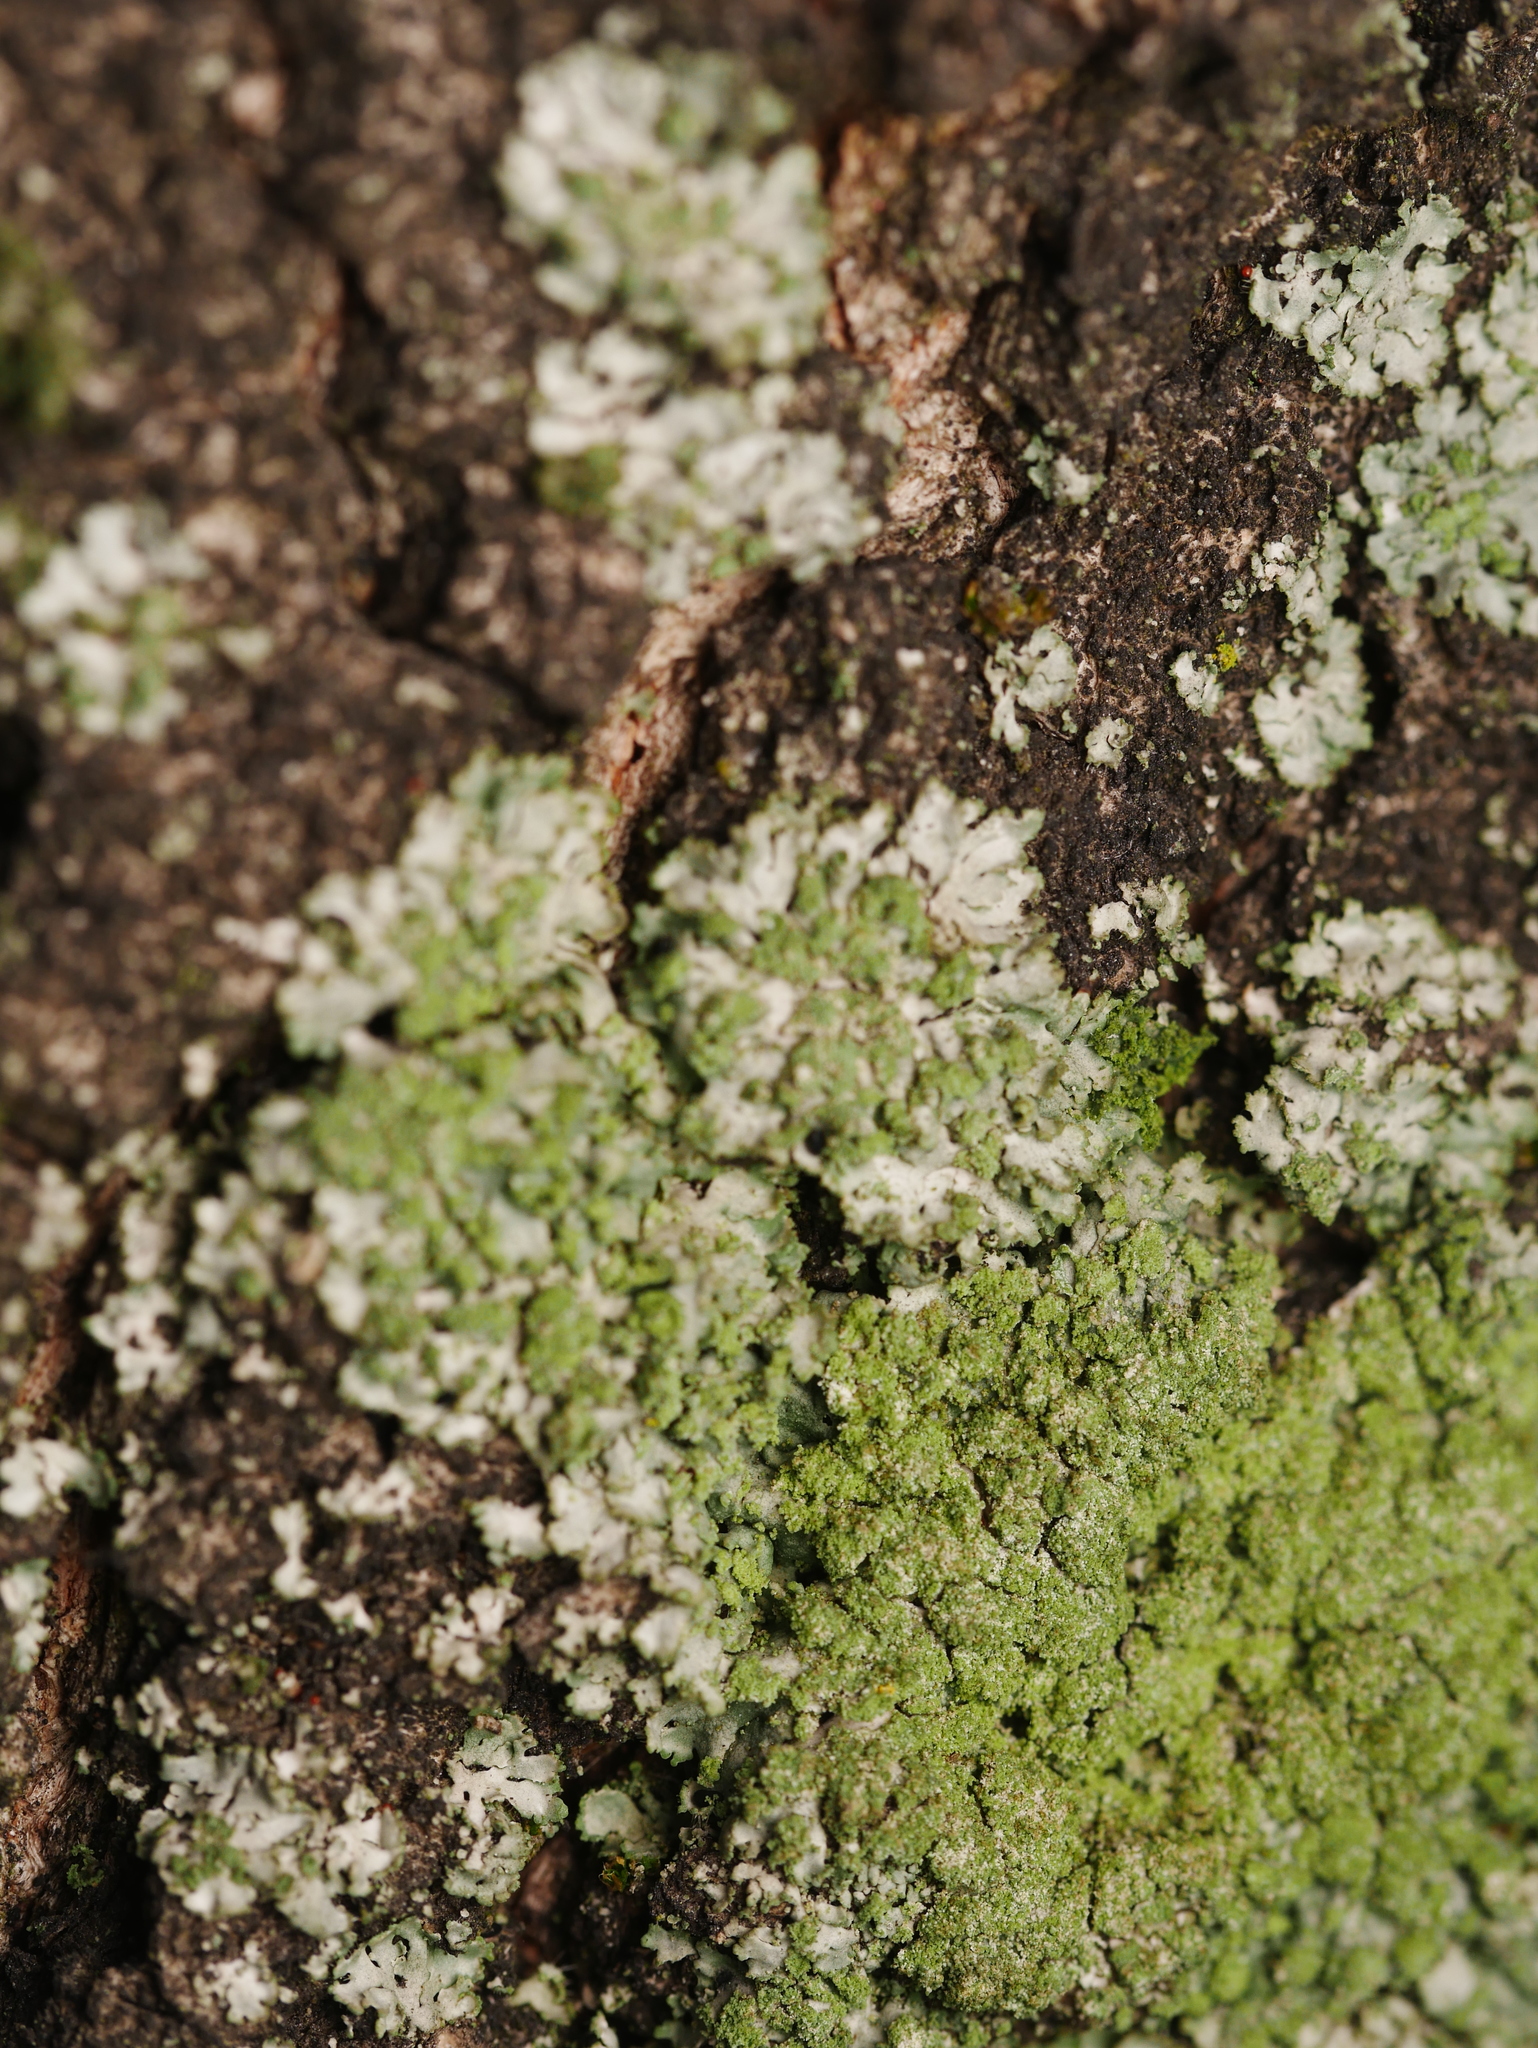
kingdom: Fungi
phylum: Ascomycota
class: Lecanoromycetes
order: Caliciales
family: Physciaceae
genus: Phaeophyscia
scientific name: Phaeophyscia orbicularis
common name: Mealy shadow lichen
